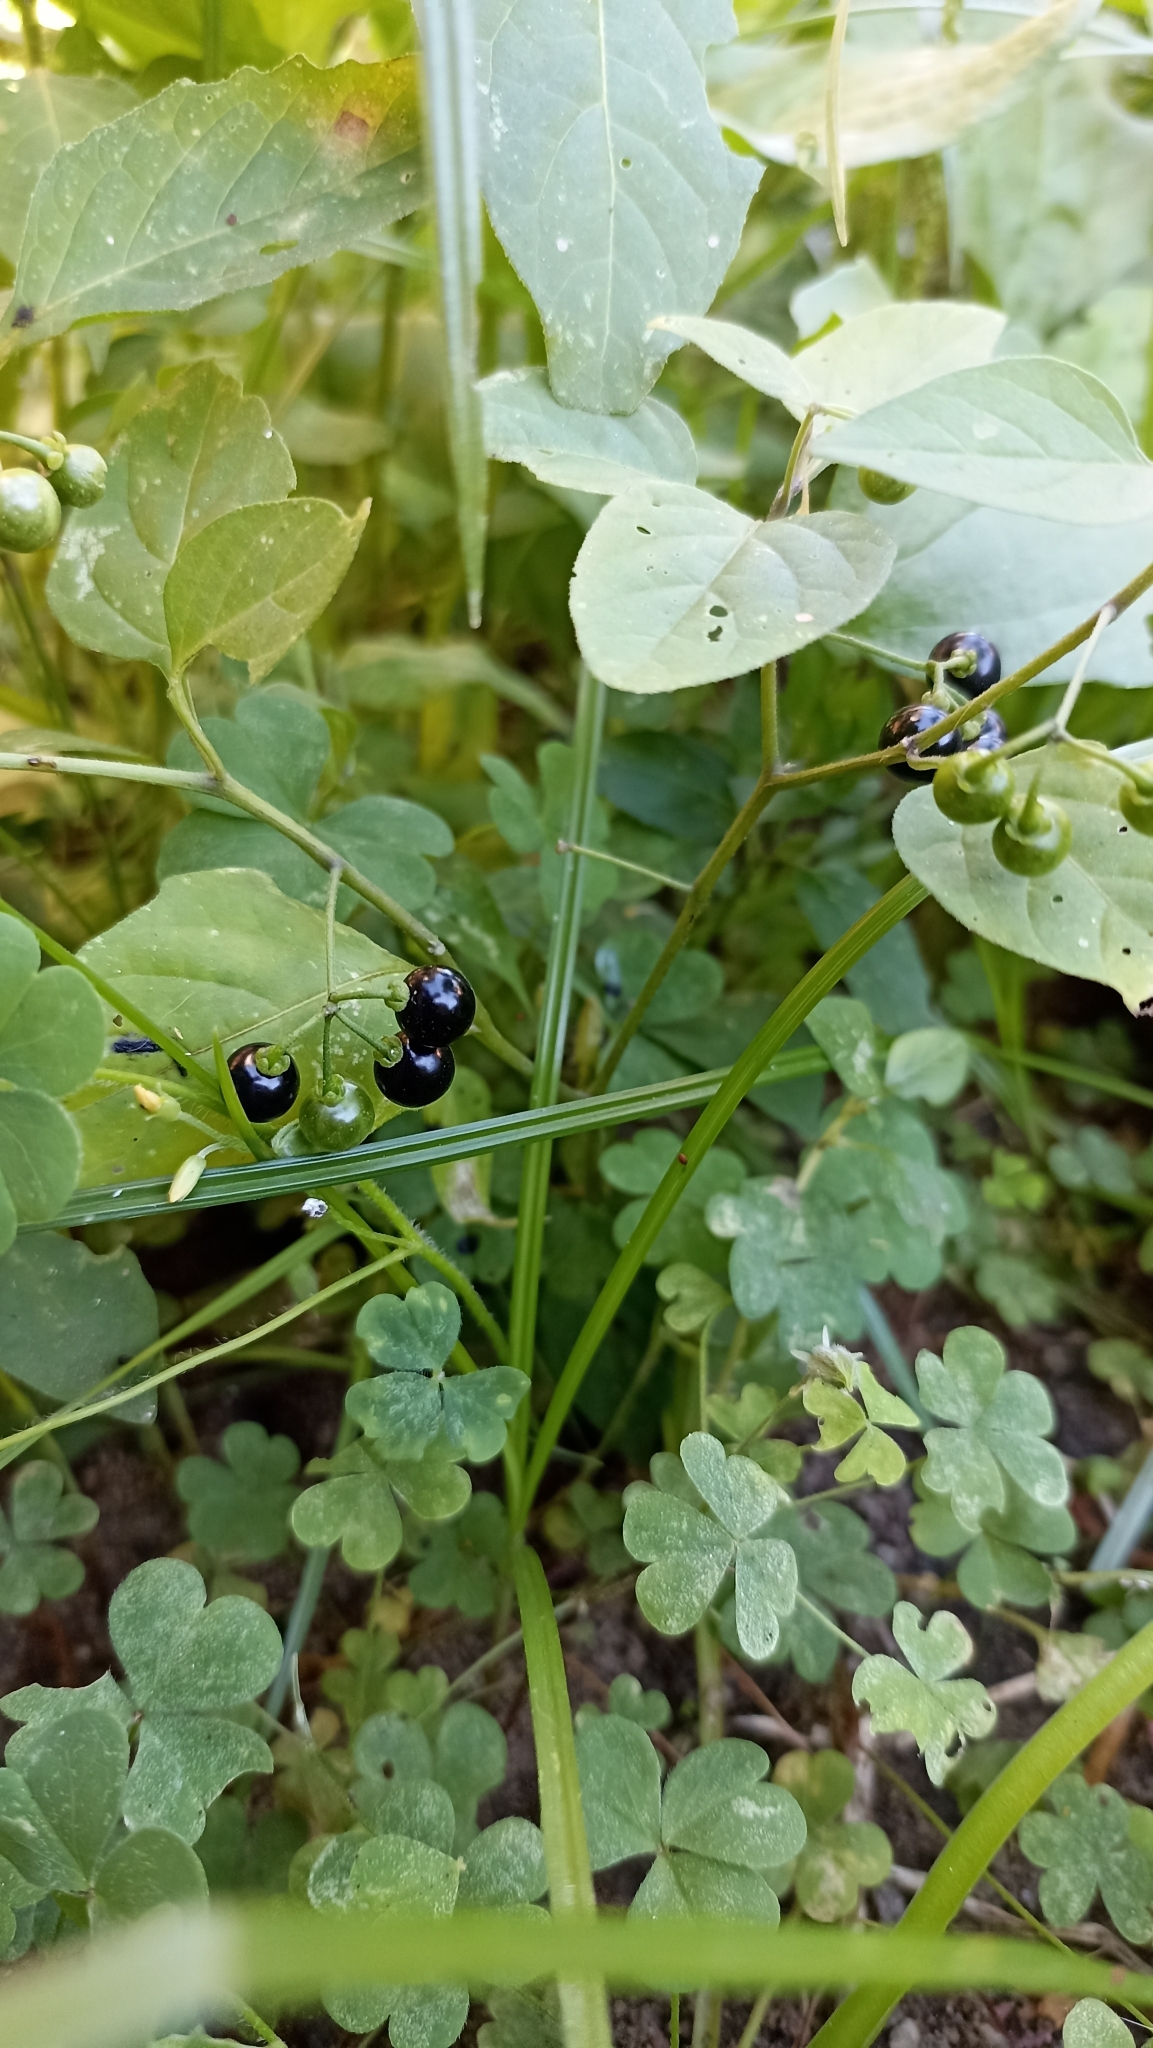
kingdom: Plantae
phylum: Tracheophyta
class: Magnoliopsida
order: Solanales
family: Solanaceae
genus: Solanum
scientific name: Solanum americanum
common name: American black nightshade
